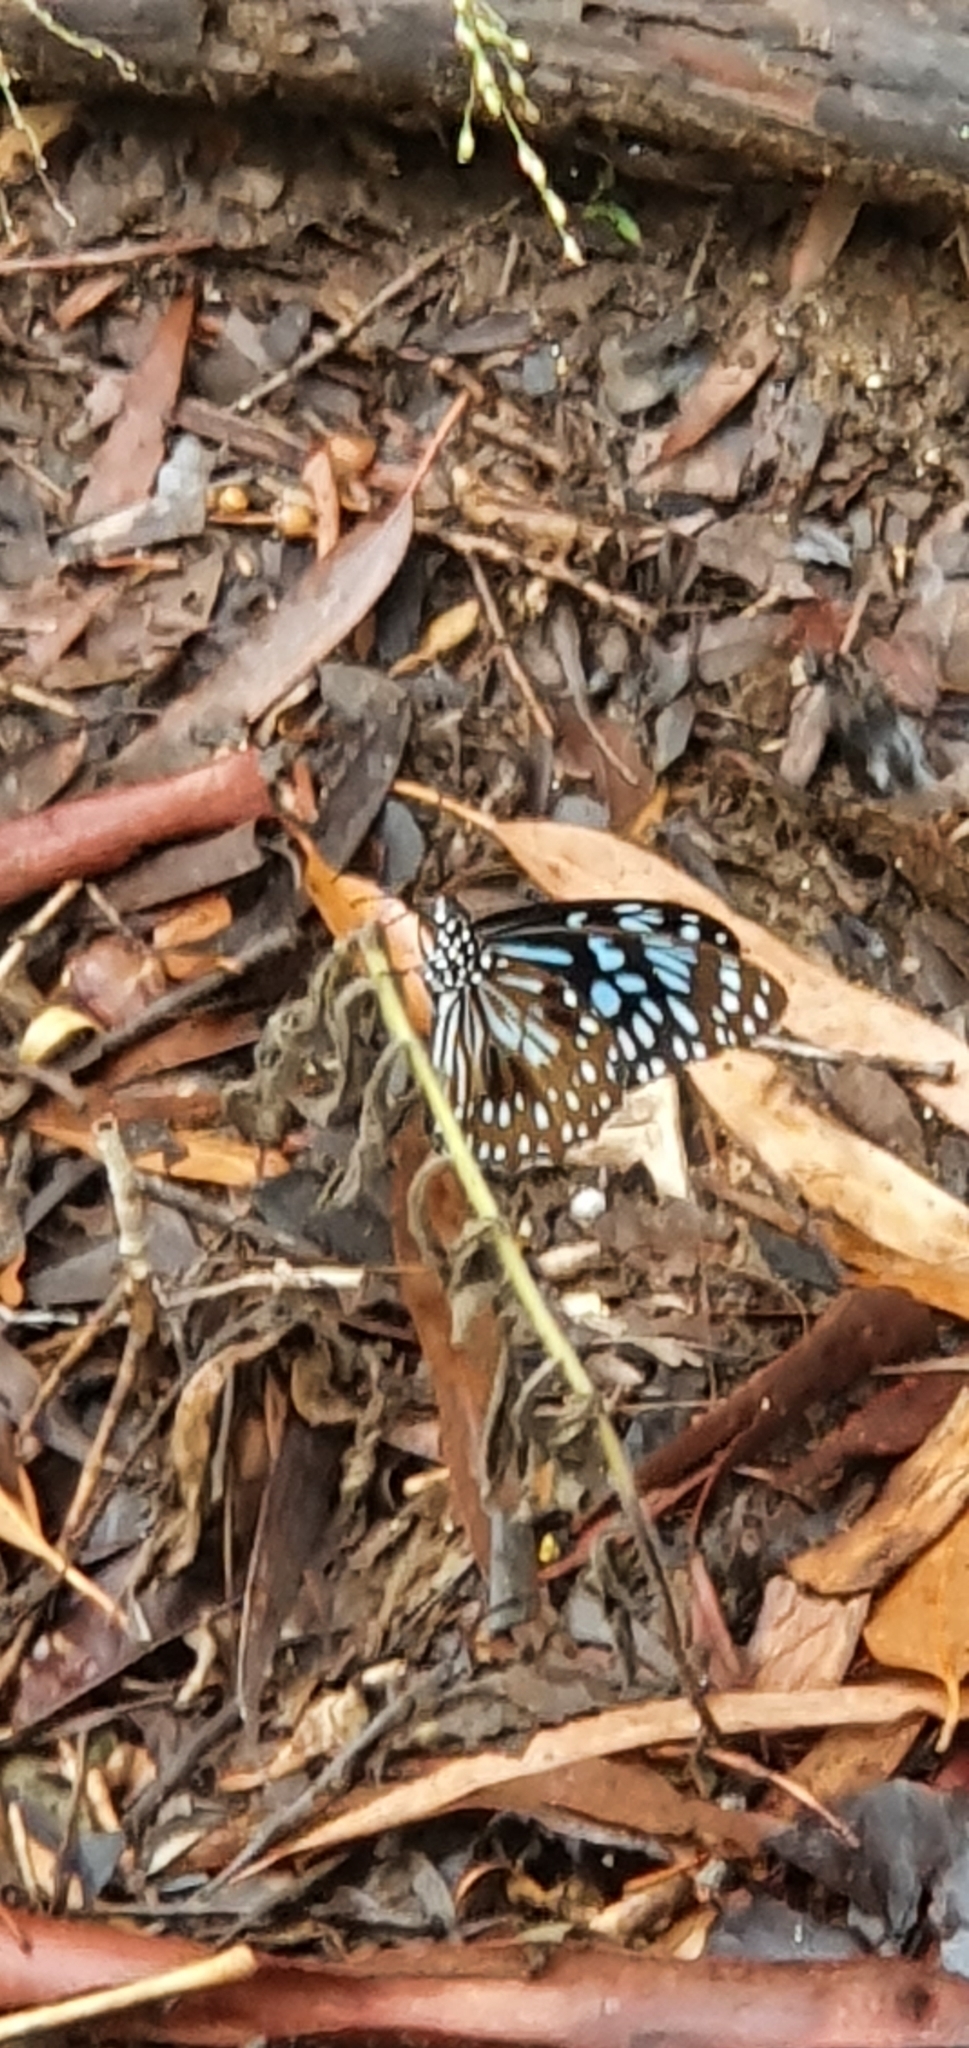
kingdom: Animalia
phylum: Arthropoda
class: Insecta
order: Lepidoptera
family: Nymphalidae
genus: Tirumala
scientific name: Tirumala hamata
